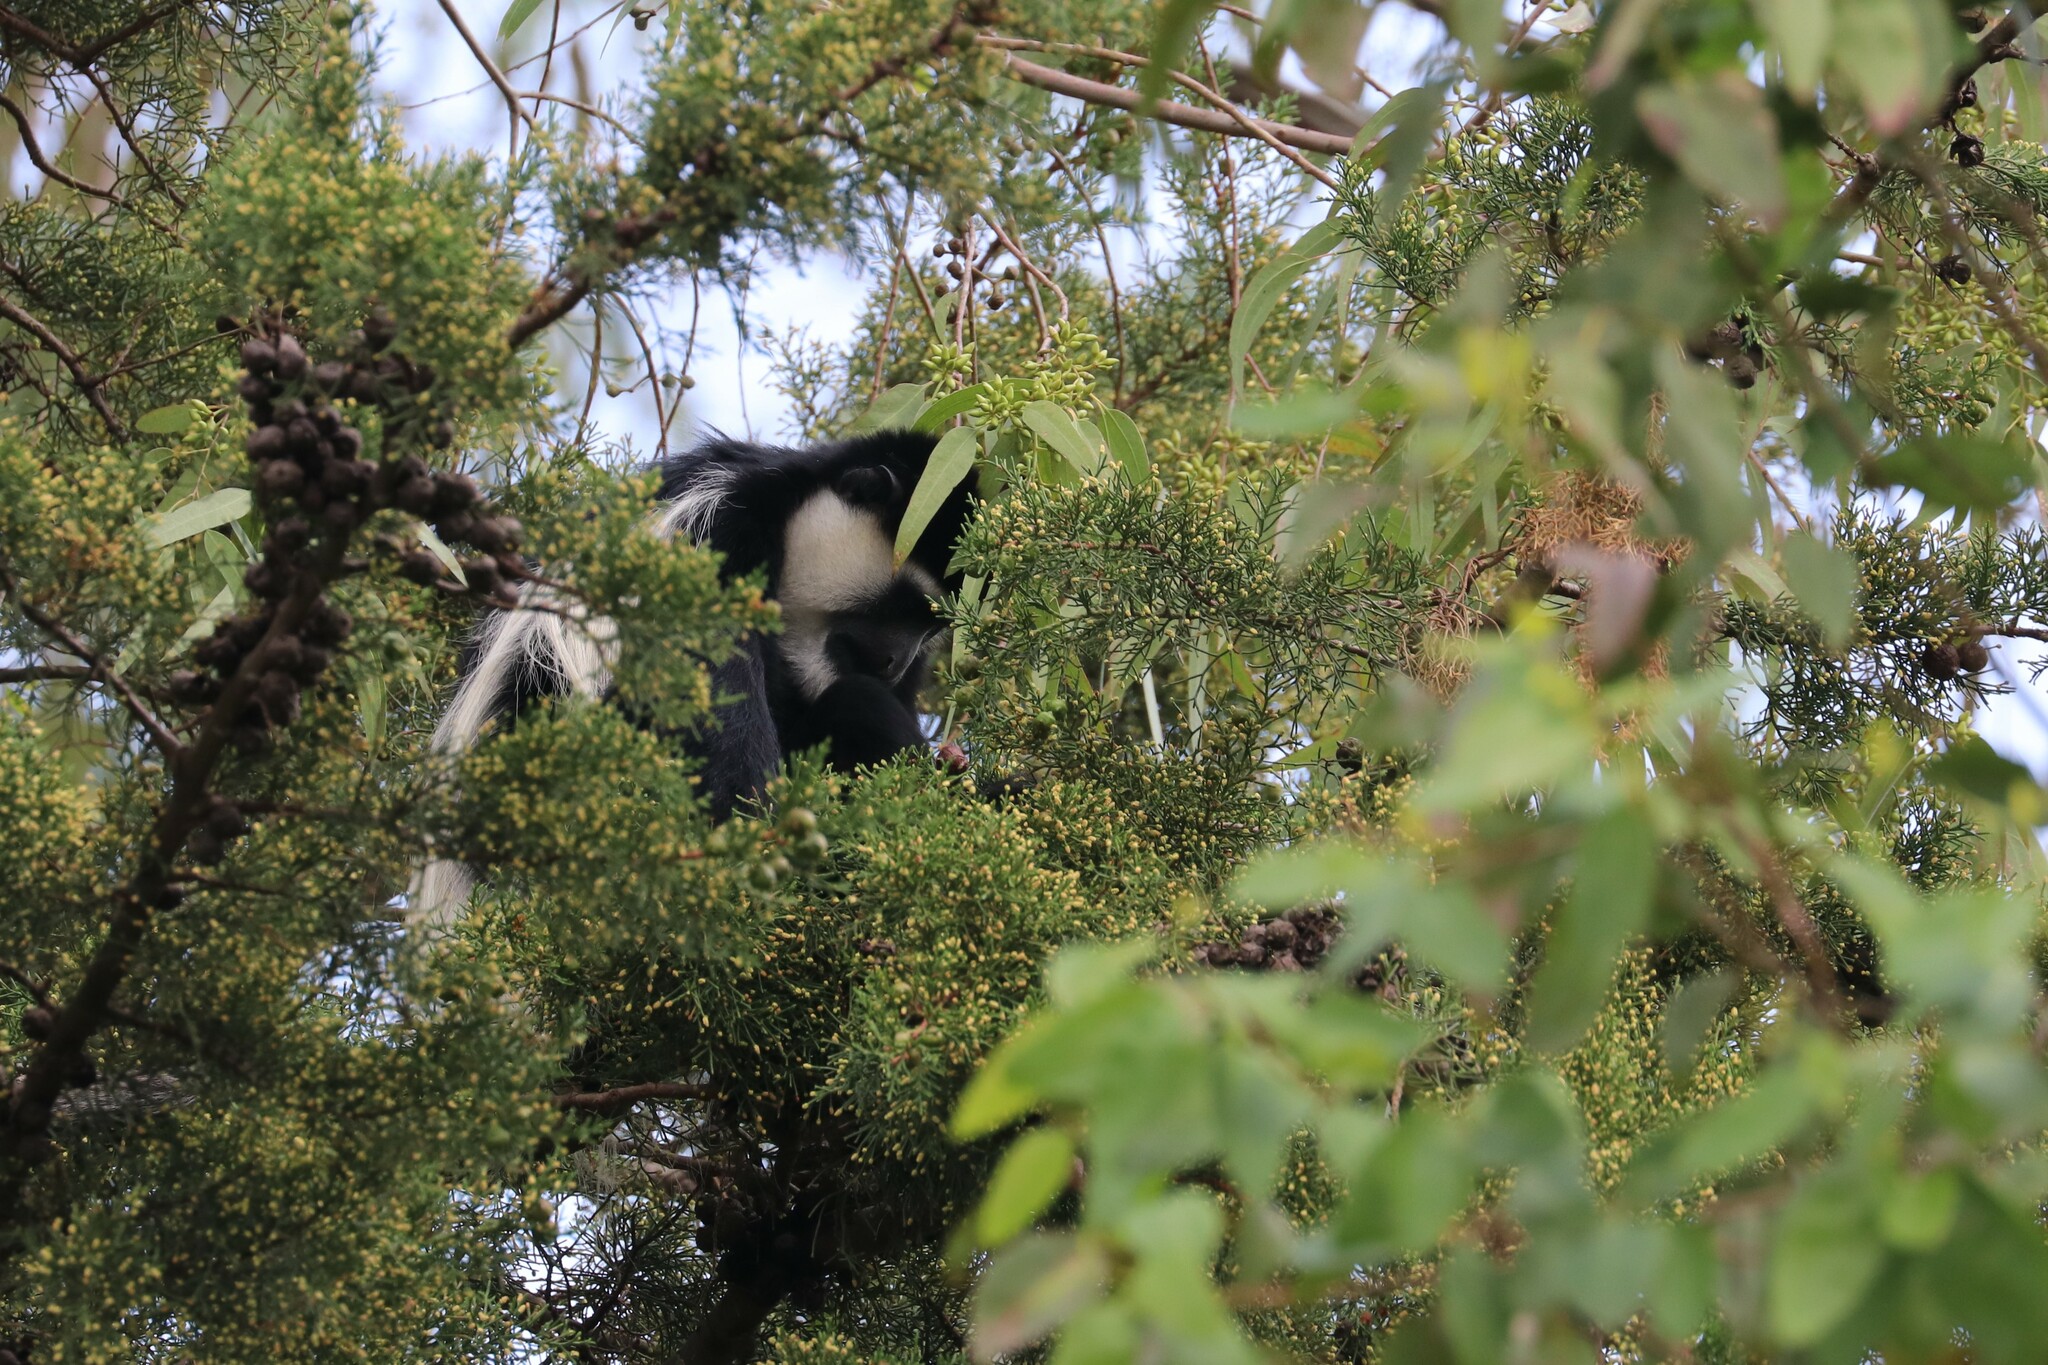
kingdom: Animalia
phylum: Chordata
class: Mammalia
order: Primates
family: Cercopithecidae
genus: Colobus
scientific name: Colobus guereza
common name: Mantled guereza
